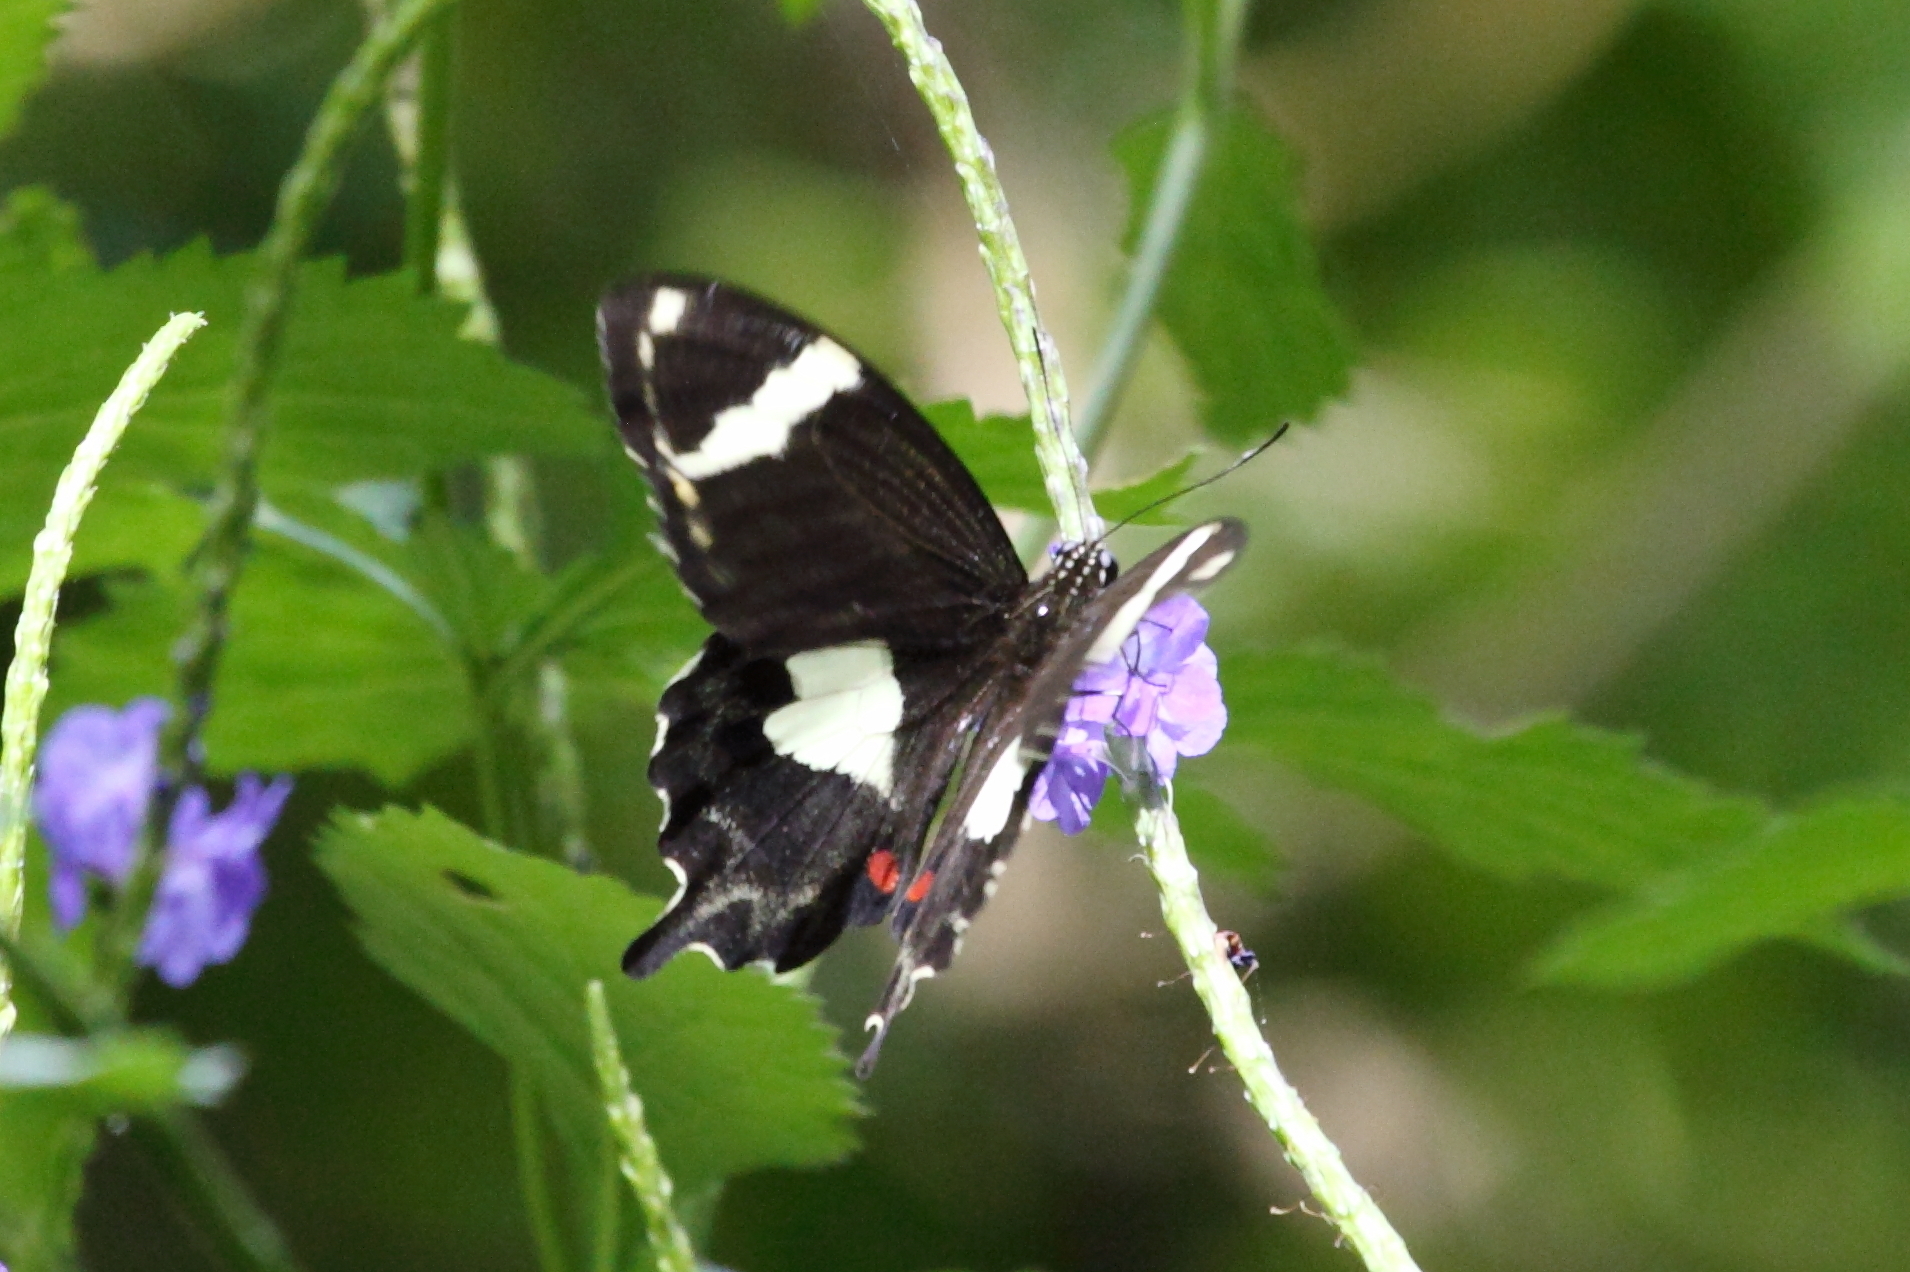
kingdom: Animalia
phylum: Arthropoda
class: Insecta
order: Lepidoptera
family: Papilionidae
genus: Papilio
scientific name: Papilio amynthor
